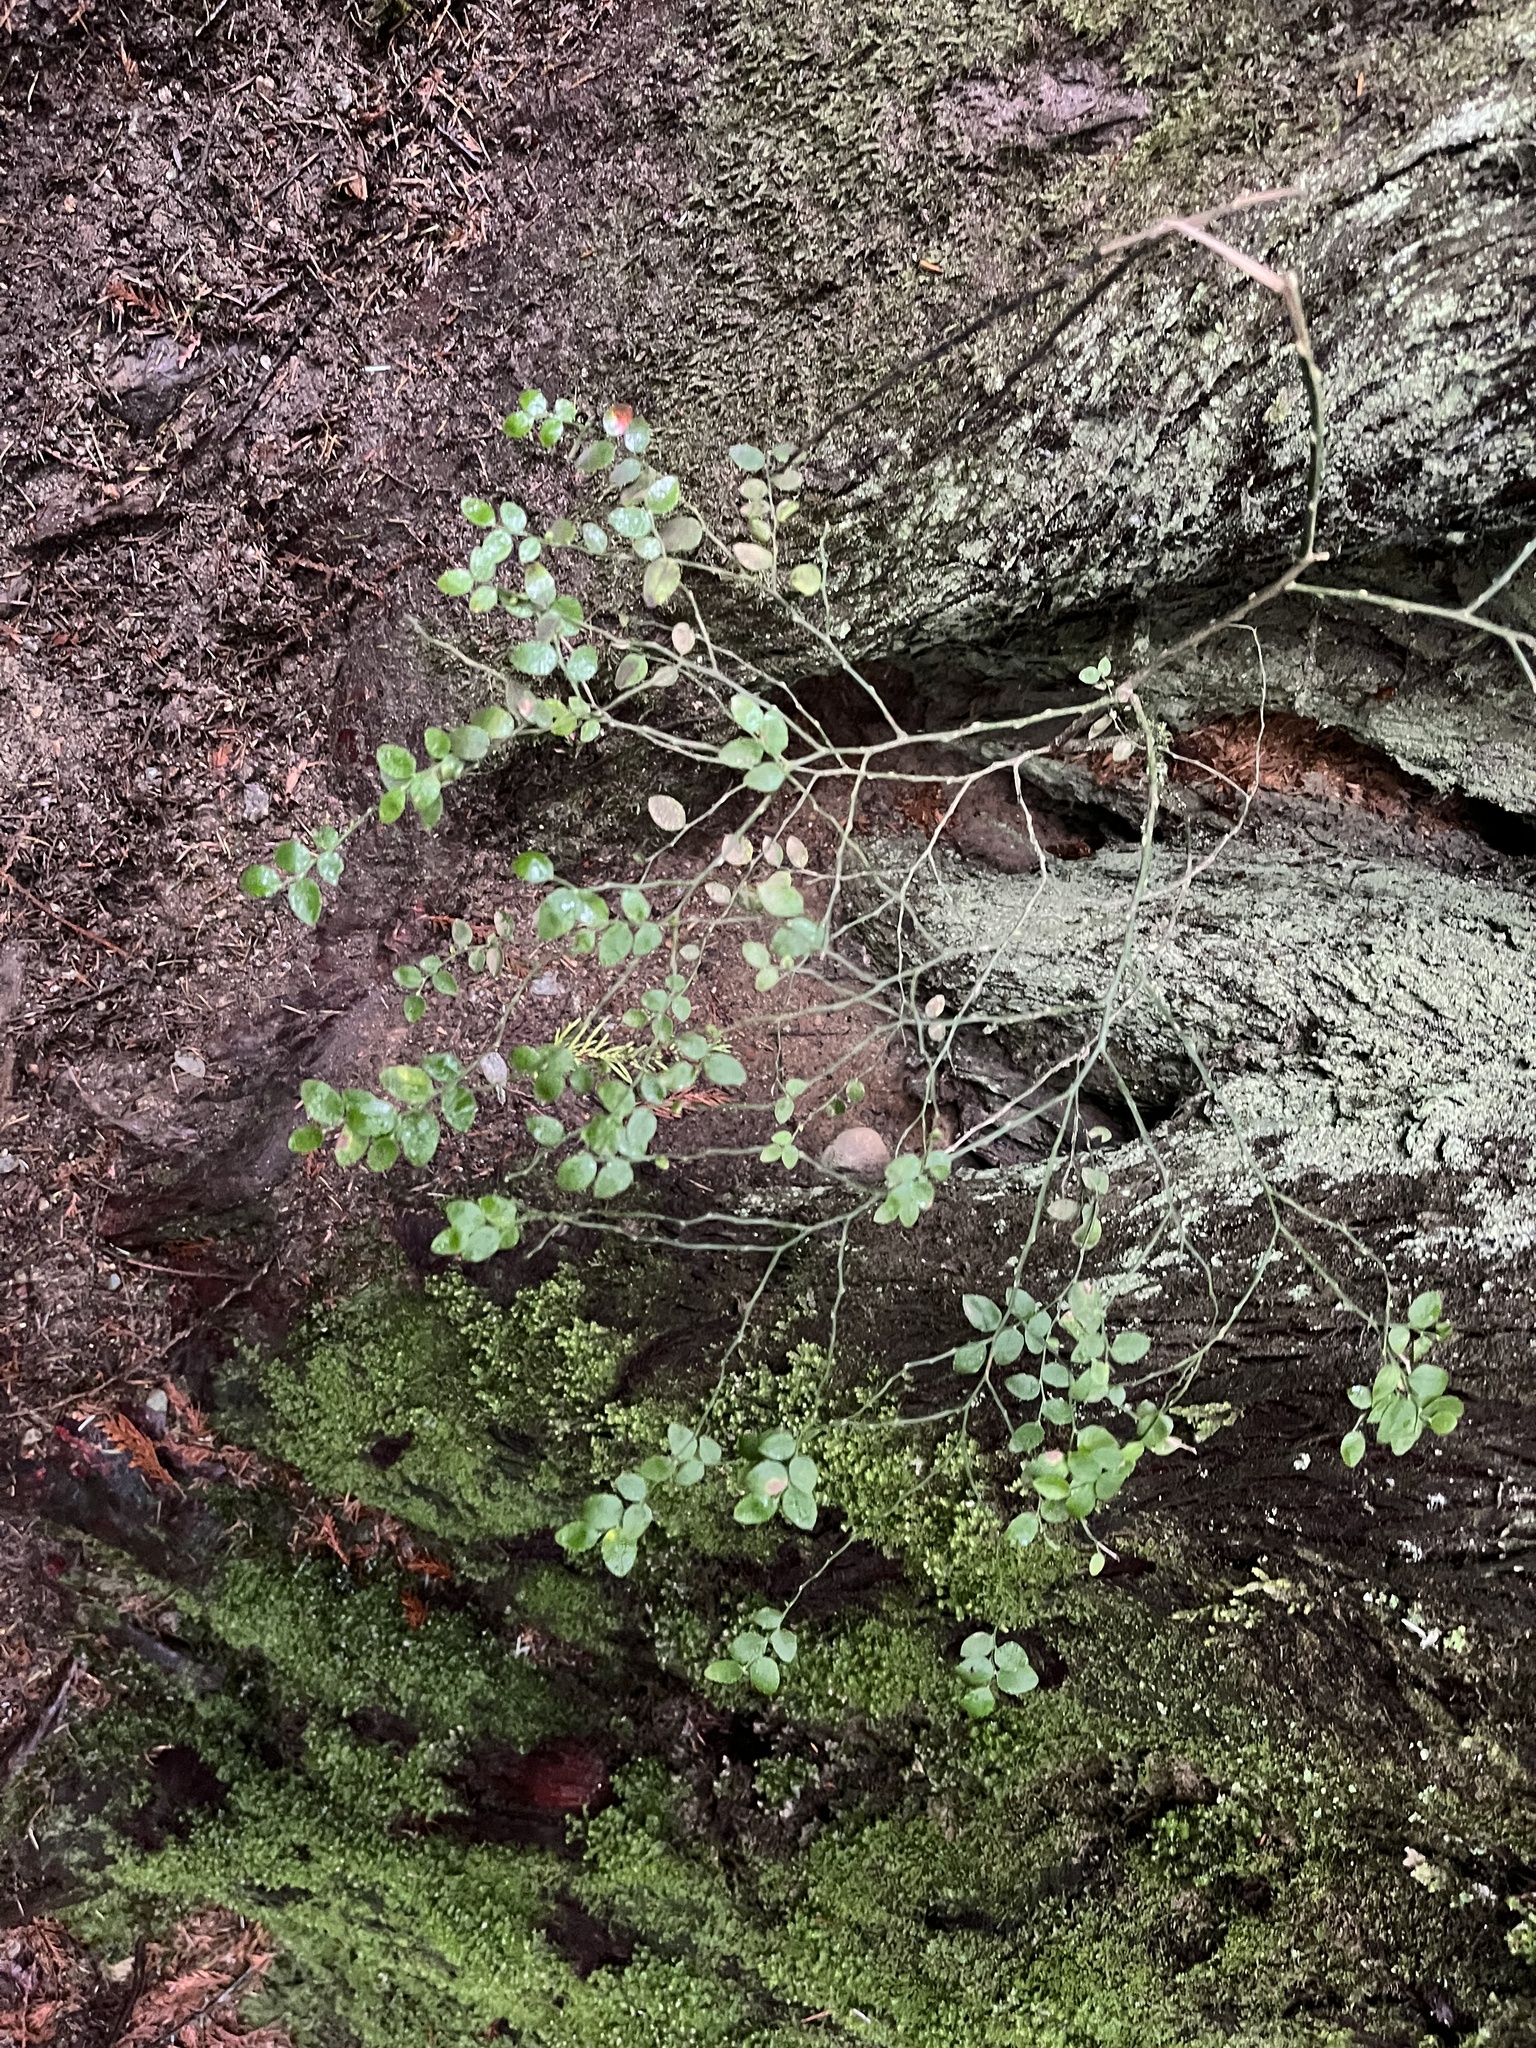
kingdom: Plantae
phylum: Tracheophyta
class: Magnoliopsida
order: Ericales
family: Ericaceae
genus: Vaccinium
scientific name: Vaccinium parvifolium
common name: Red-huckleberry
